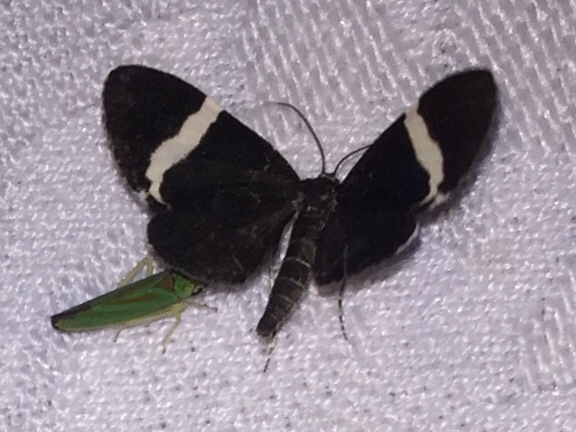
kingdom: Animalia
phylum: Arthropoda
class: Insecta
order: Lepidoptera
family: Geometridae
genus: Trichodezia
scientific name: Trichodezia albovittata
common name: White striped black
